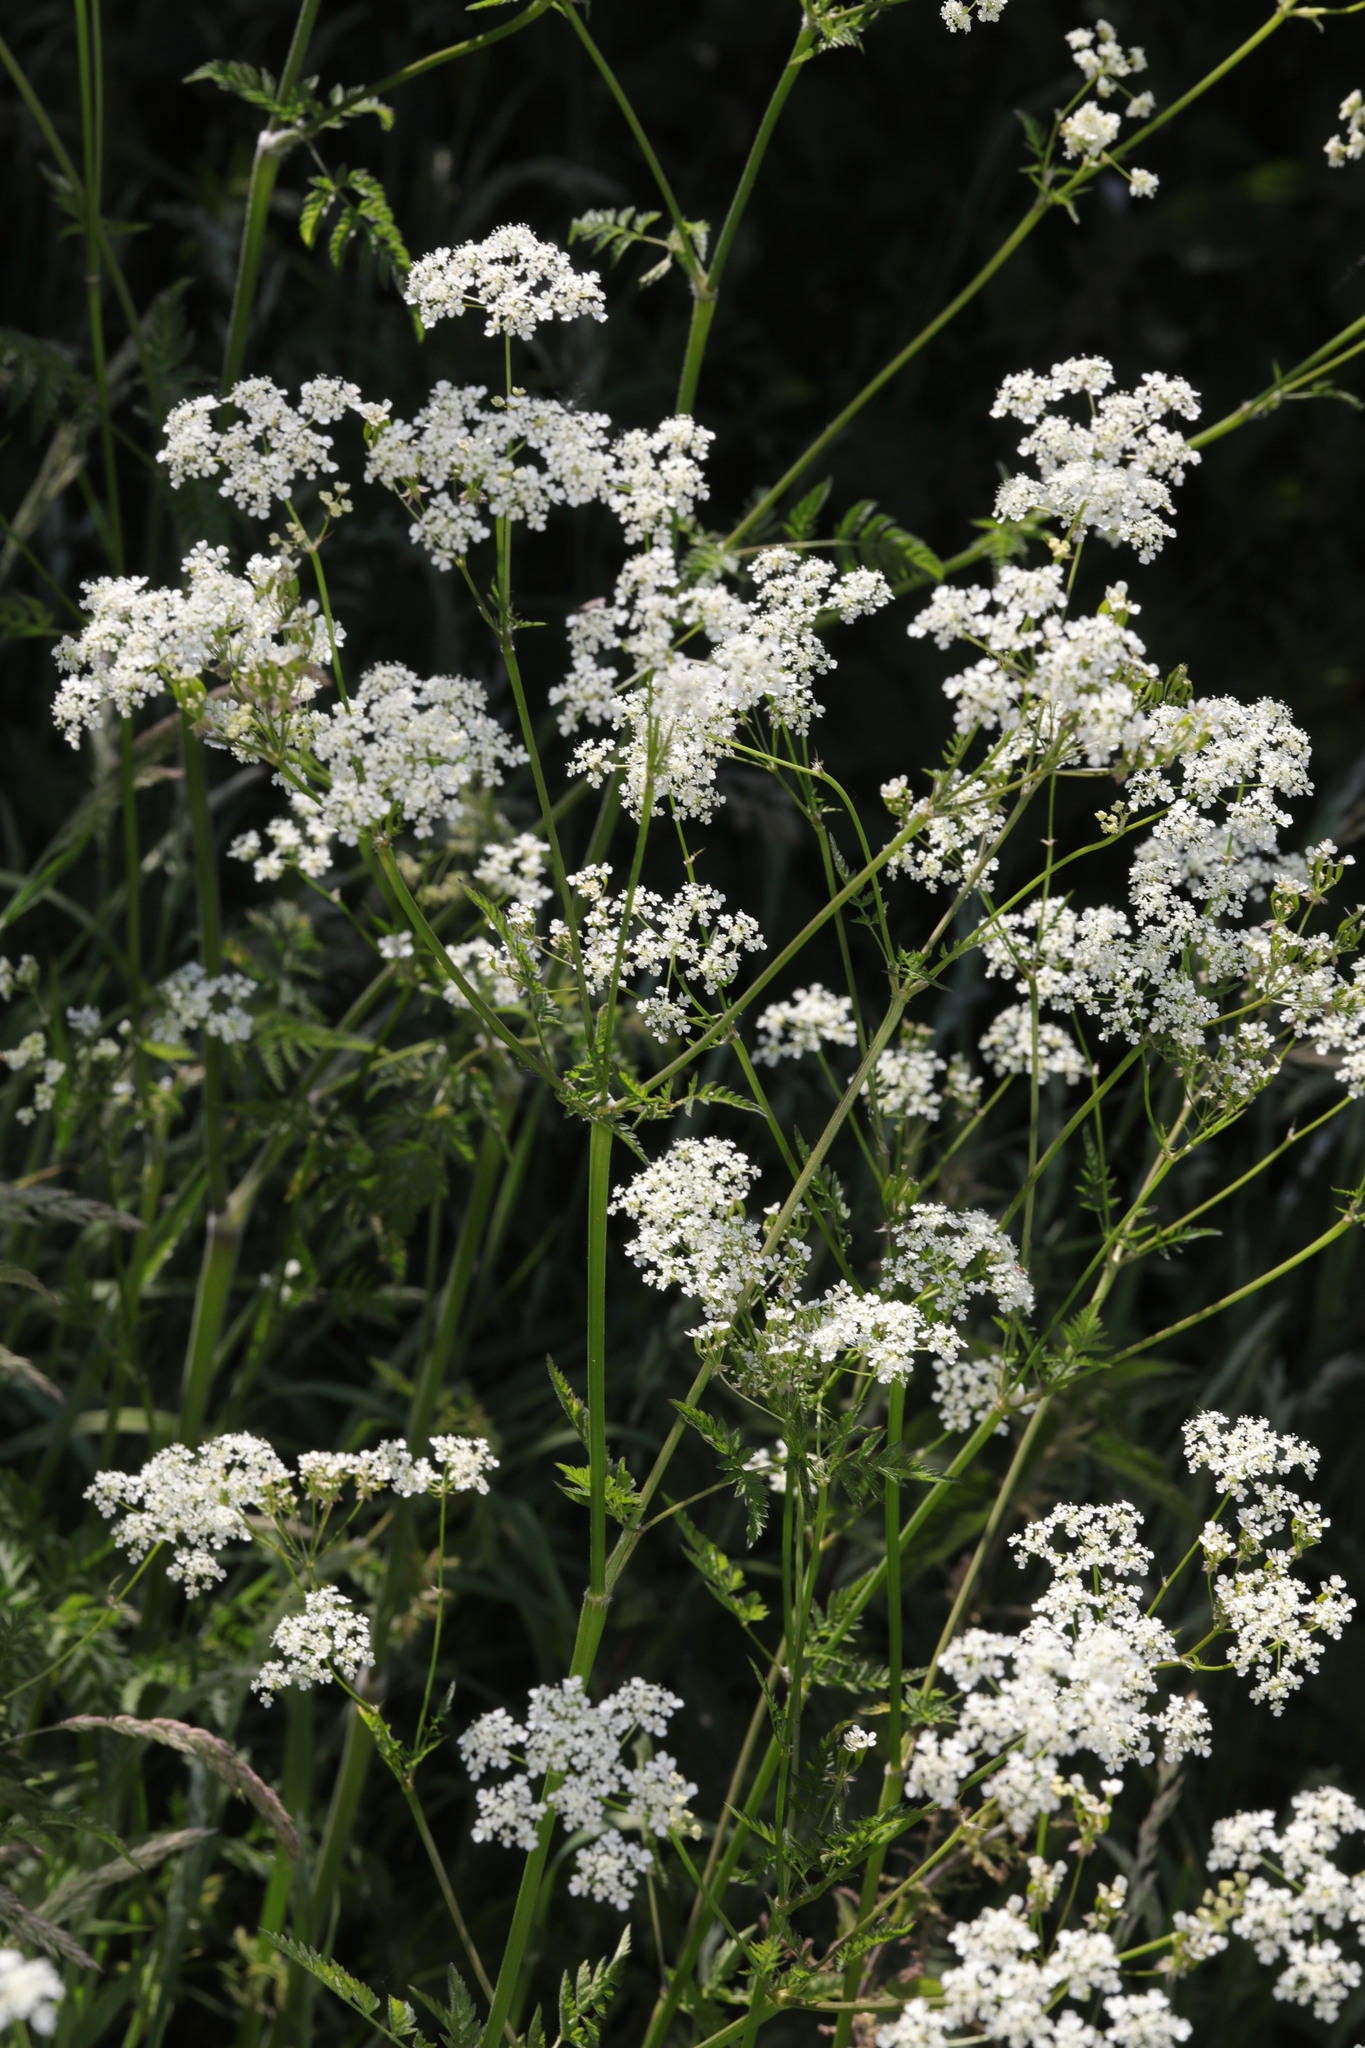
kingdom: Plantae
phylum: Tracheophyta
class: Magnoliopsida
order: Apiales
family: Apiaceae
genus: Anthriscus
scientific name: Anthriscus sylvestris
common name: Cow parsley
